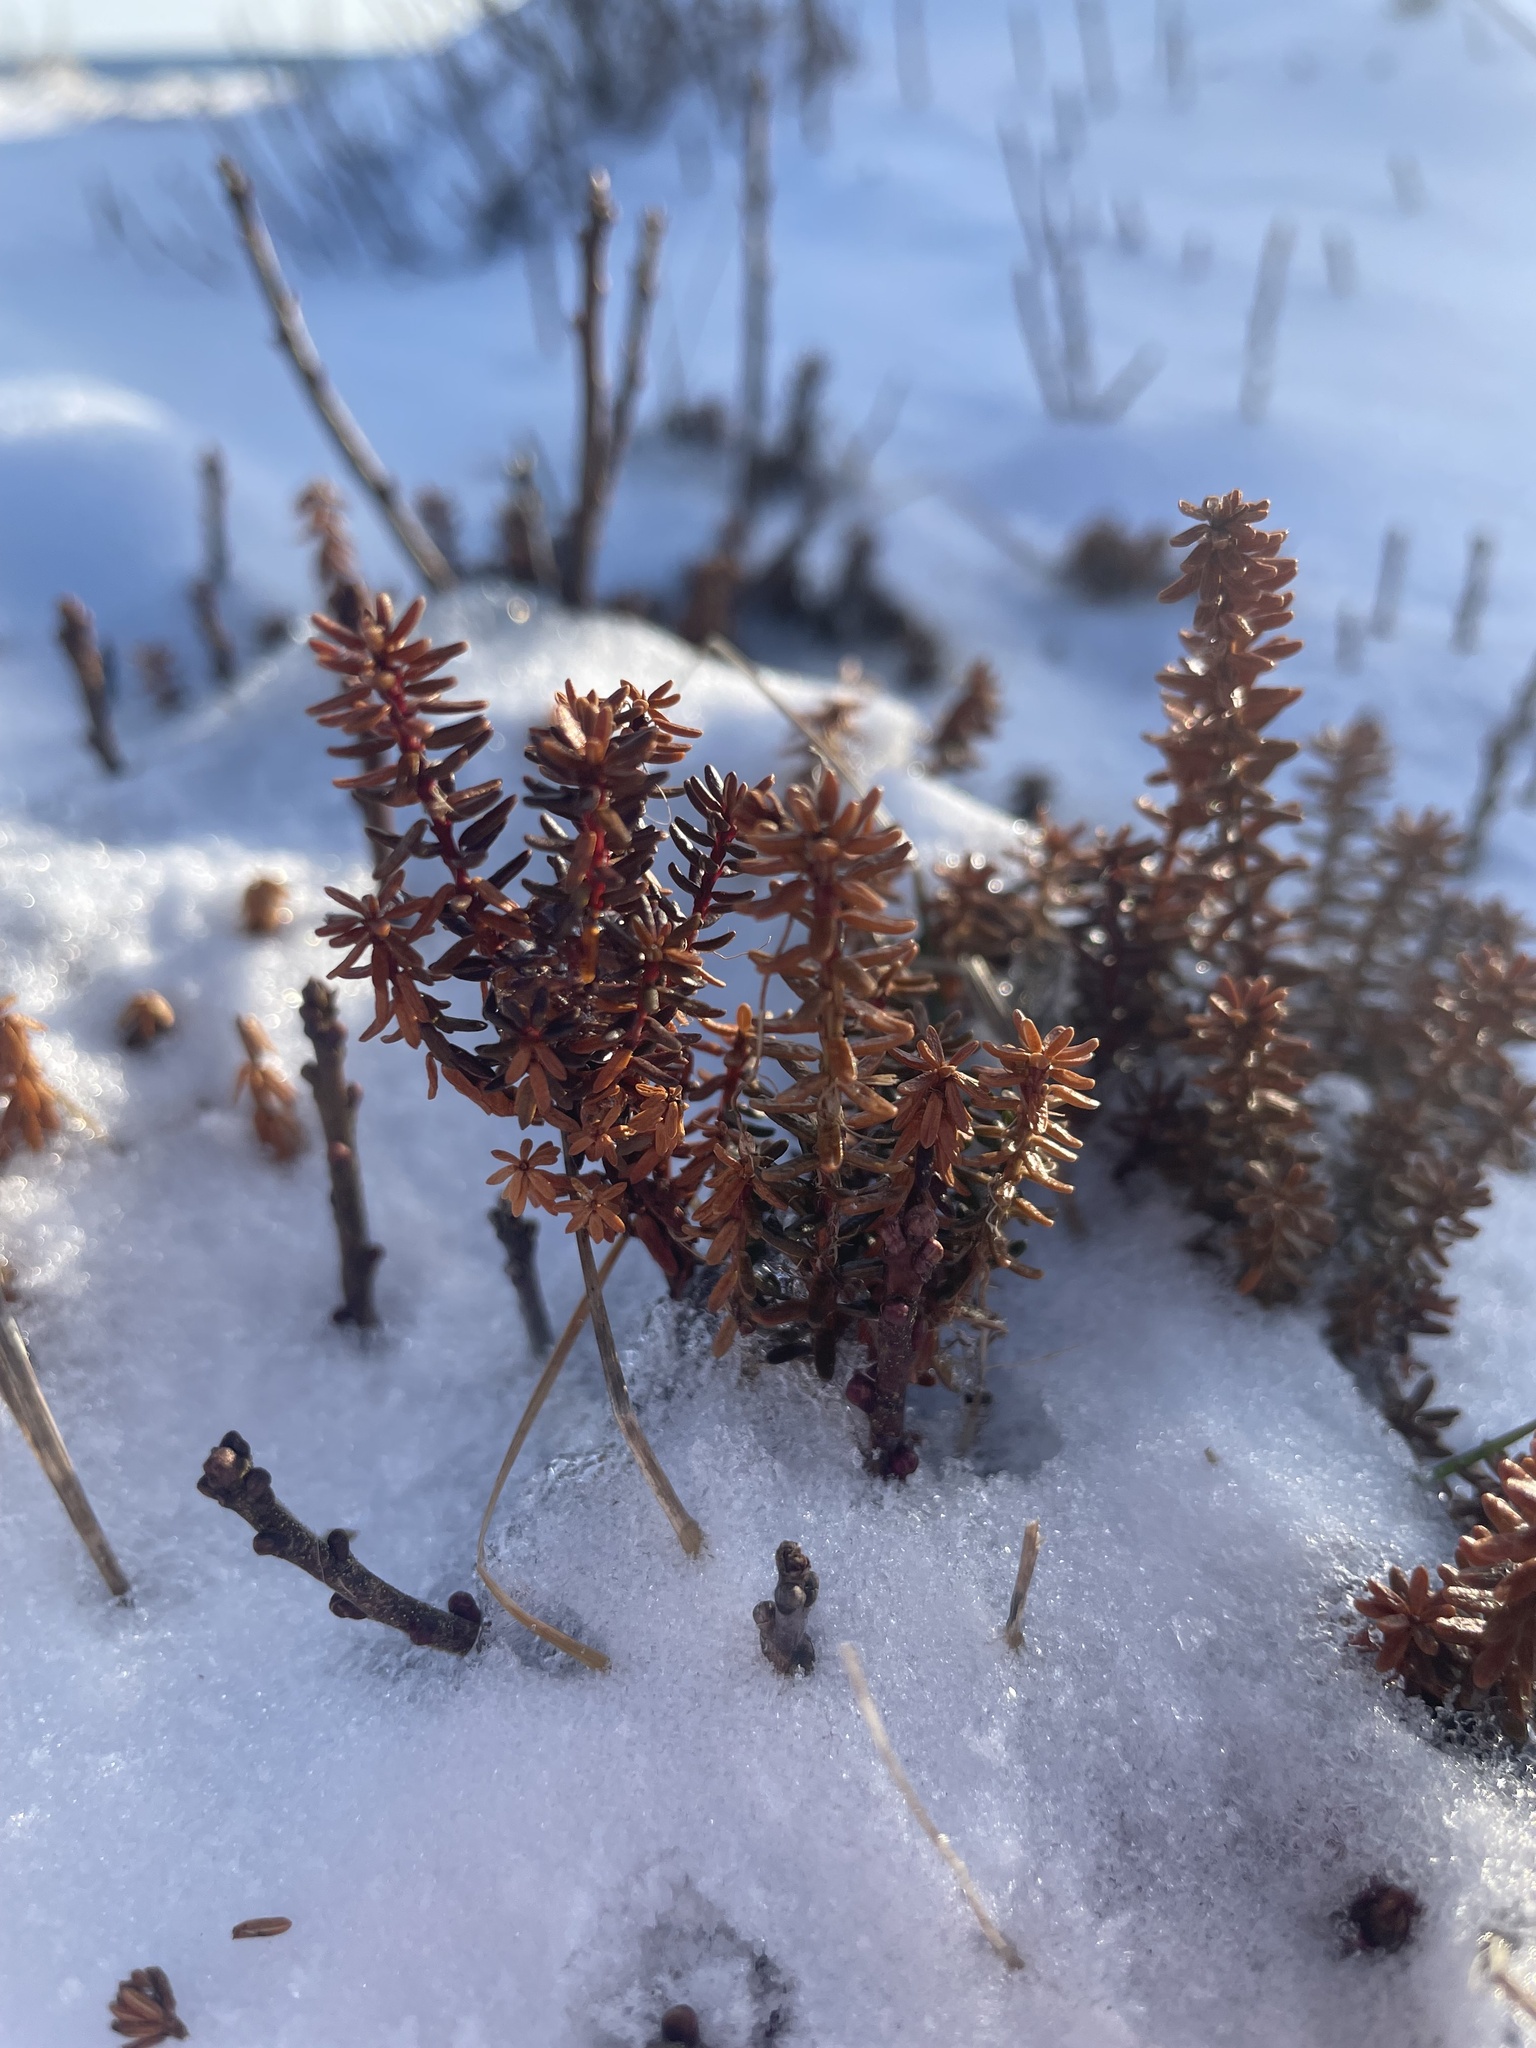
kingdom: Plantae
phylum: Tracheophyta
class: Magnoliopsida
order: Ericales
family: Ericaceae
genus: Empetrum
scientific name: Empetrum nigrum
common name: Black crowberry
